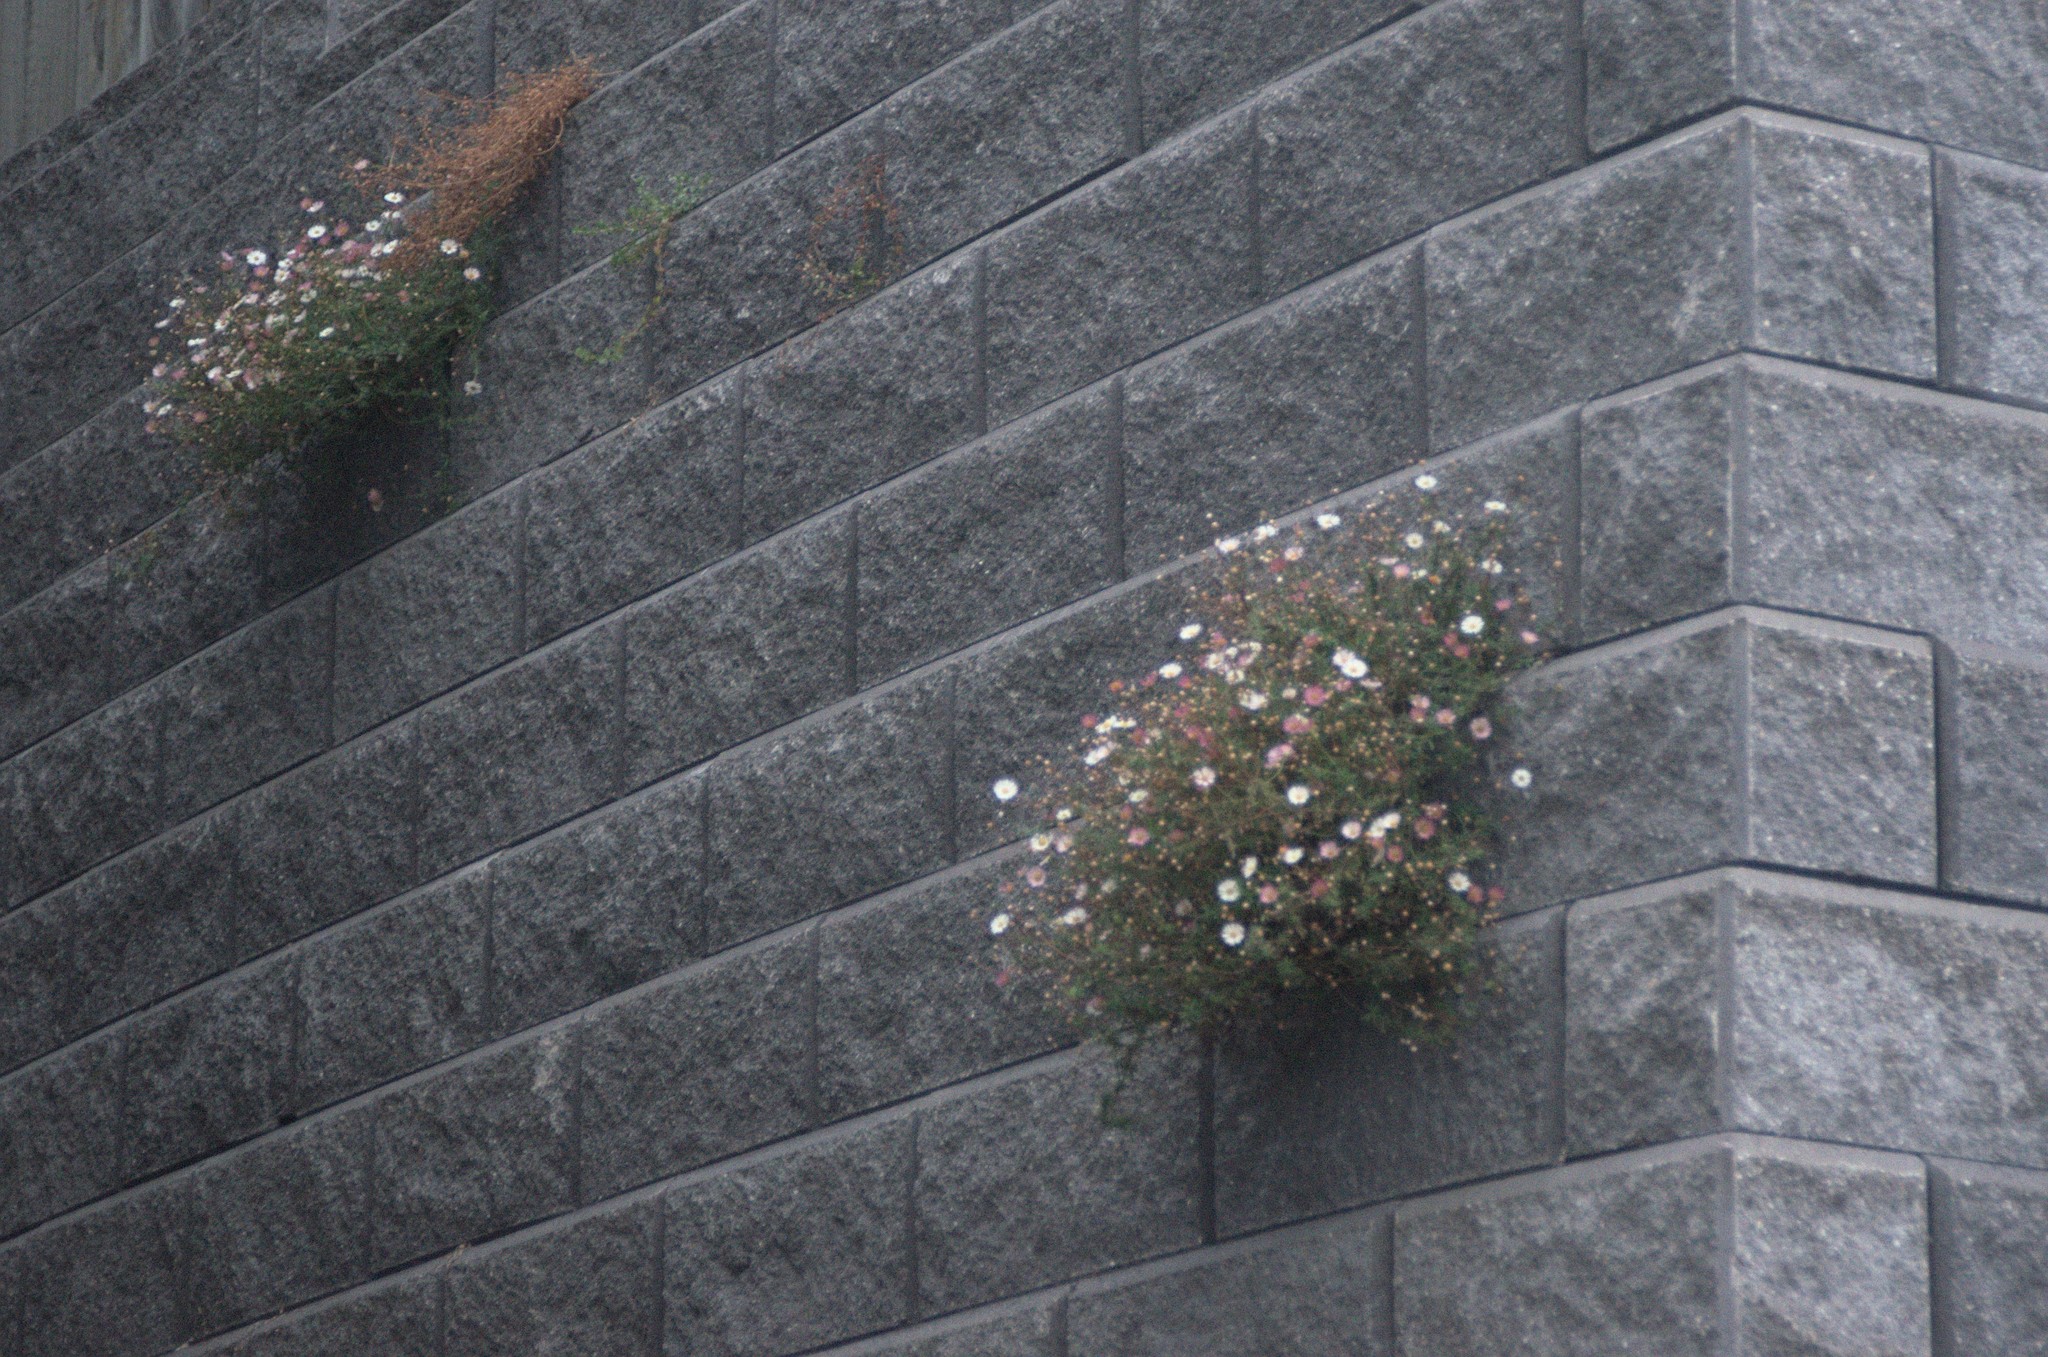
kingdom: Plantae
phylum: Tracheophyta
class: Magnoliopsida
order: Asterales
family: Asteraceae
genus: Erigeron
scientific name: Erigeron karvinskianus
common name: Mexican fleabane
